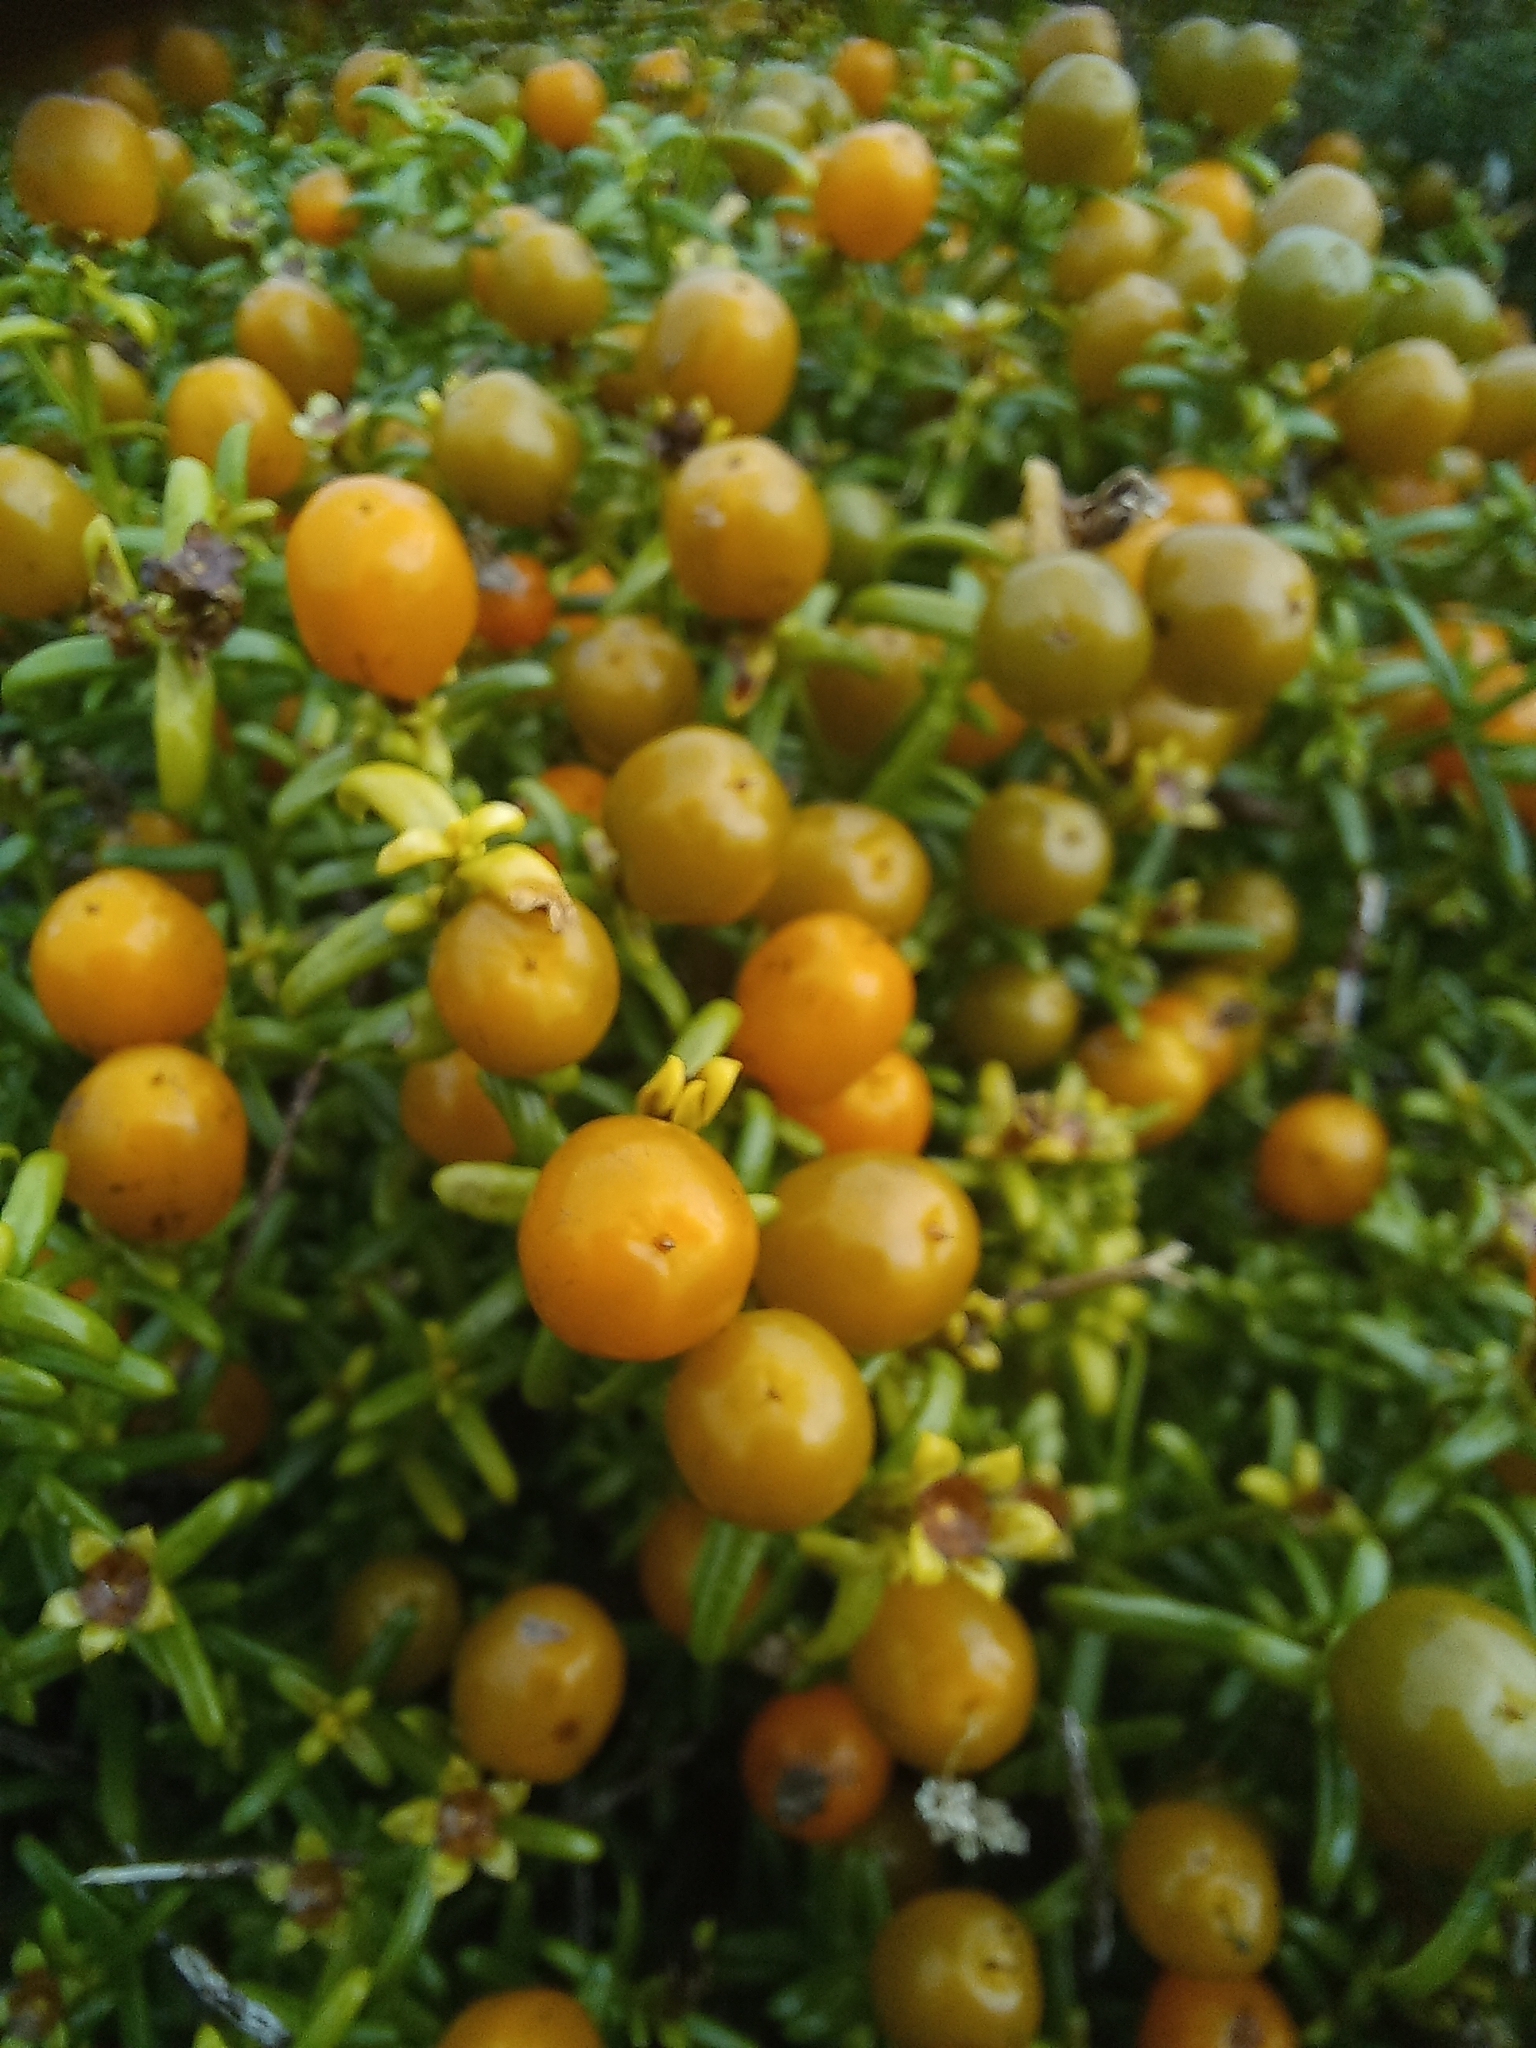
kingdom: Plantae
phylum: Tracheophyta
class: Magnoliopsida
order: Gentianales
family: Gentianaceae
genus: Chironia
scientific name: Chironia baccifera
